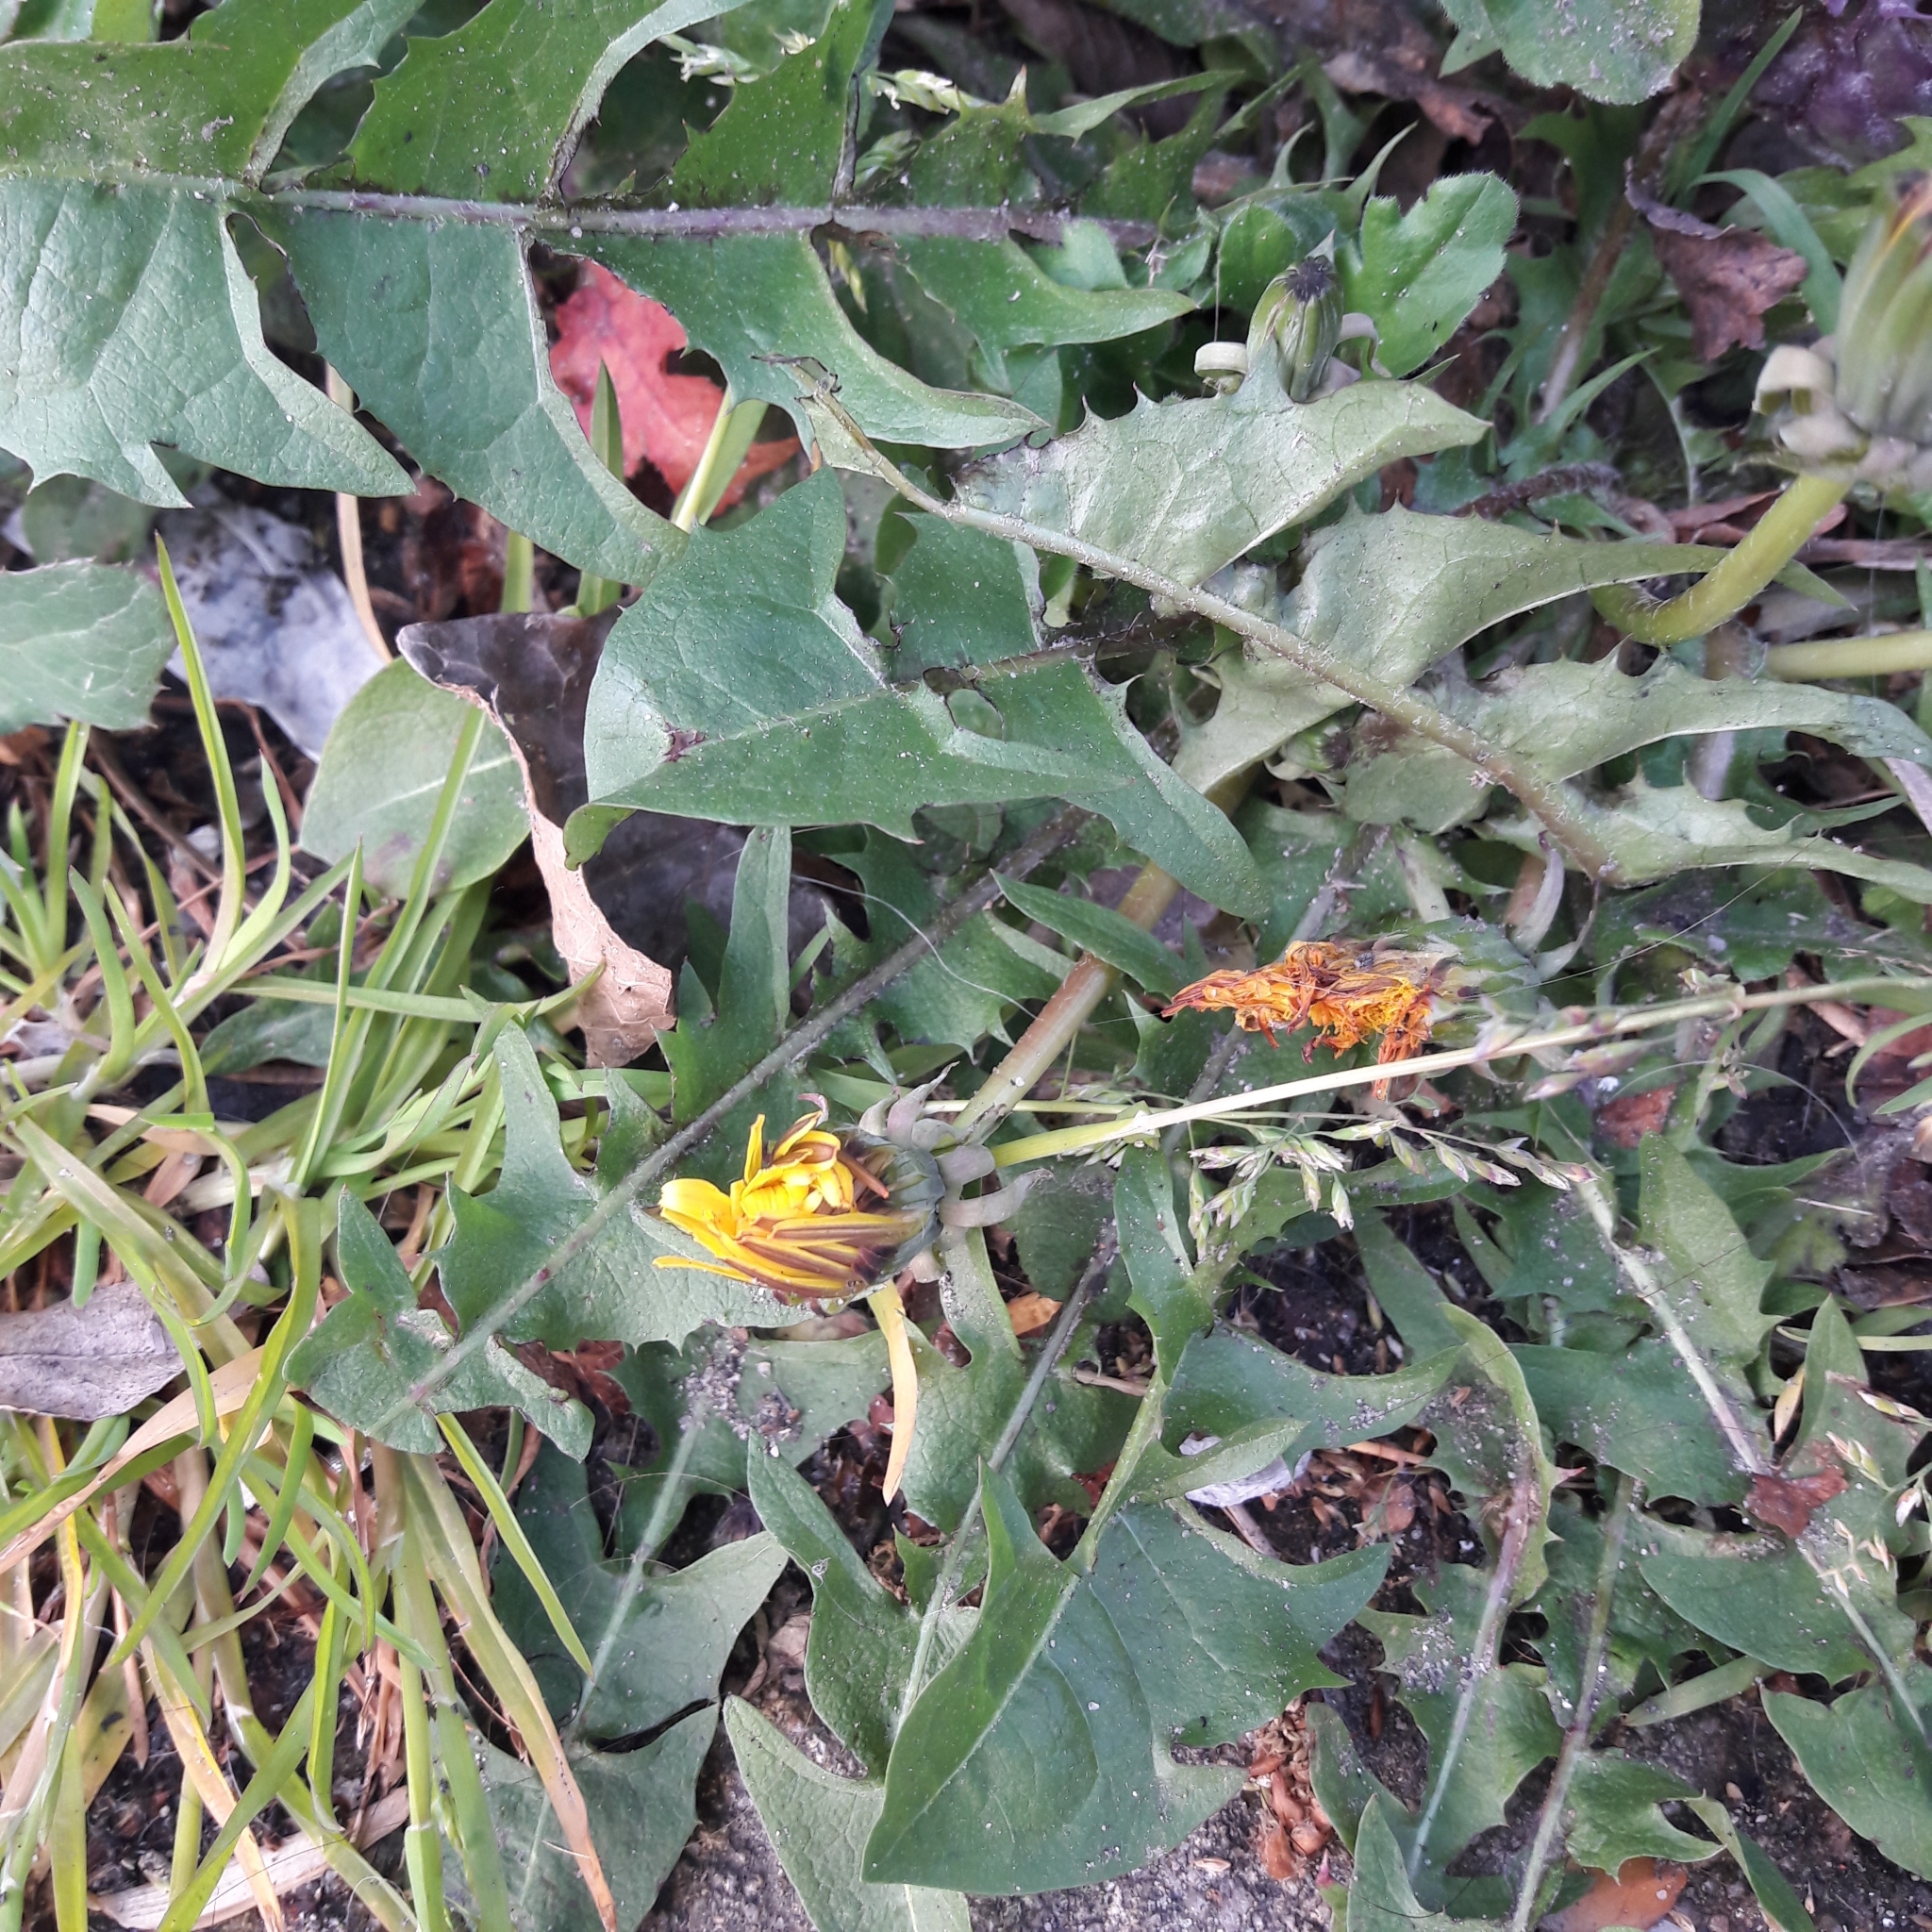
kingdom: Plantae
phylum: Tracheophyta
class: Magnoliopsida
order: Asterales
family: Asteraceae
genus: Taraxacum
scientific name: Taraxacum officinale
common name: Common dandelion
